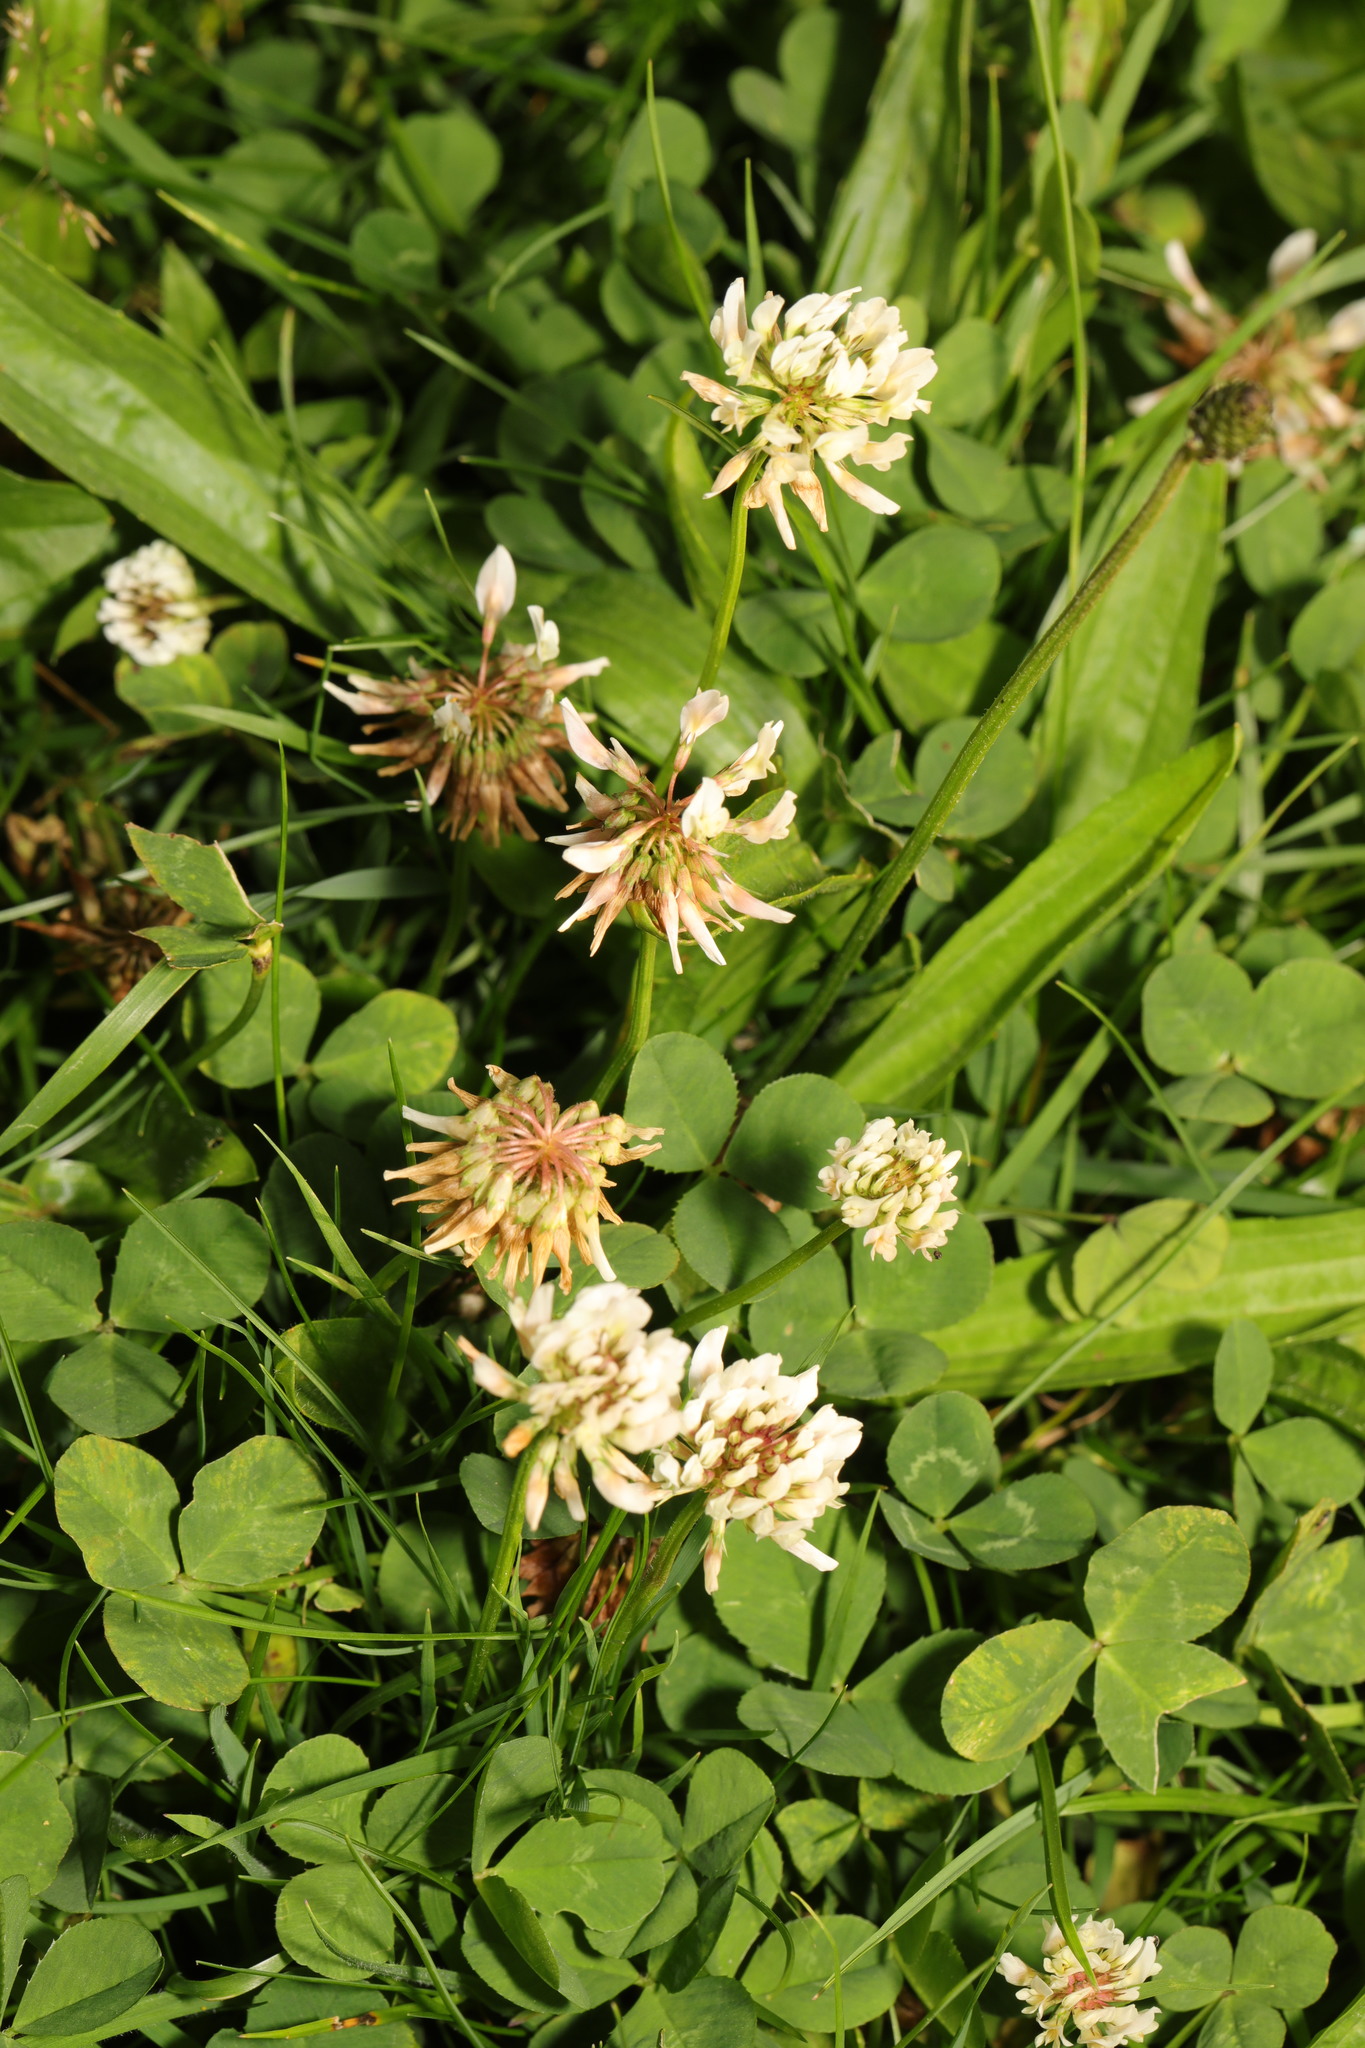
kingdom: Plantae
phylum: Tracheophyta
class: Magnoliopsida
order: Fabales
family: Fabaceae
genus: Trifolium
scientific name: Trifolium repens
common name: White clover
